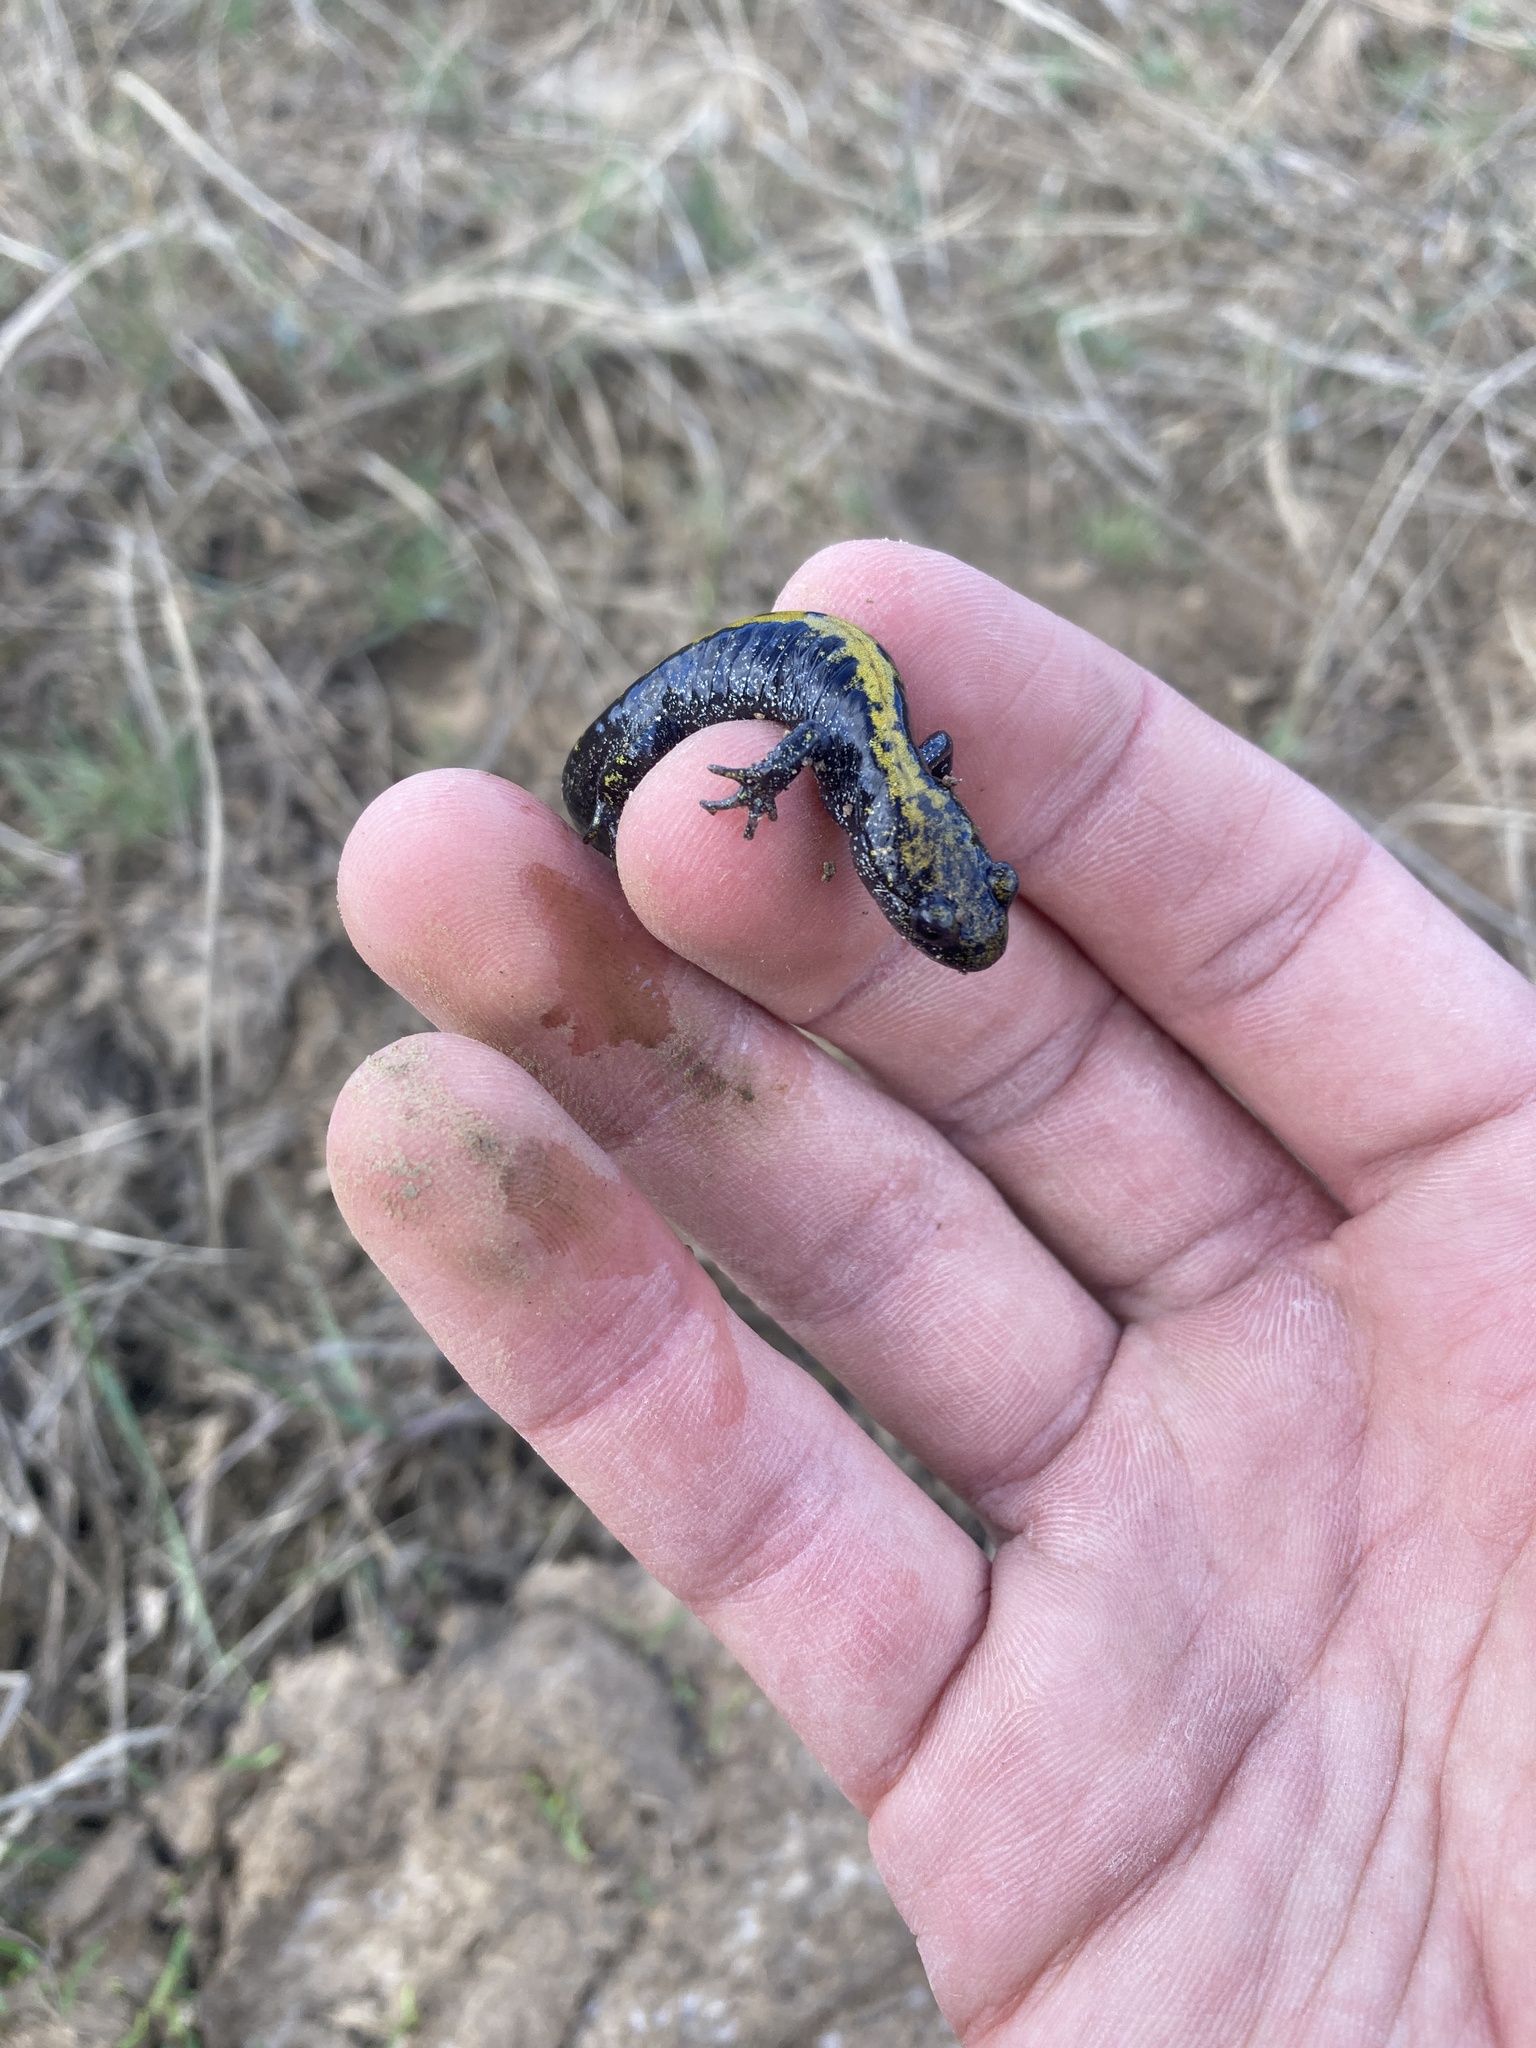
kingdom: Animalia
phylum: Chordata
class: Amphibia
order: Caudata
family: Ambystomatidae
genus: Ambystoma
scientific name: Ambystoma macrodactylum
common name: Long-toed salamander
